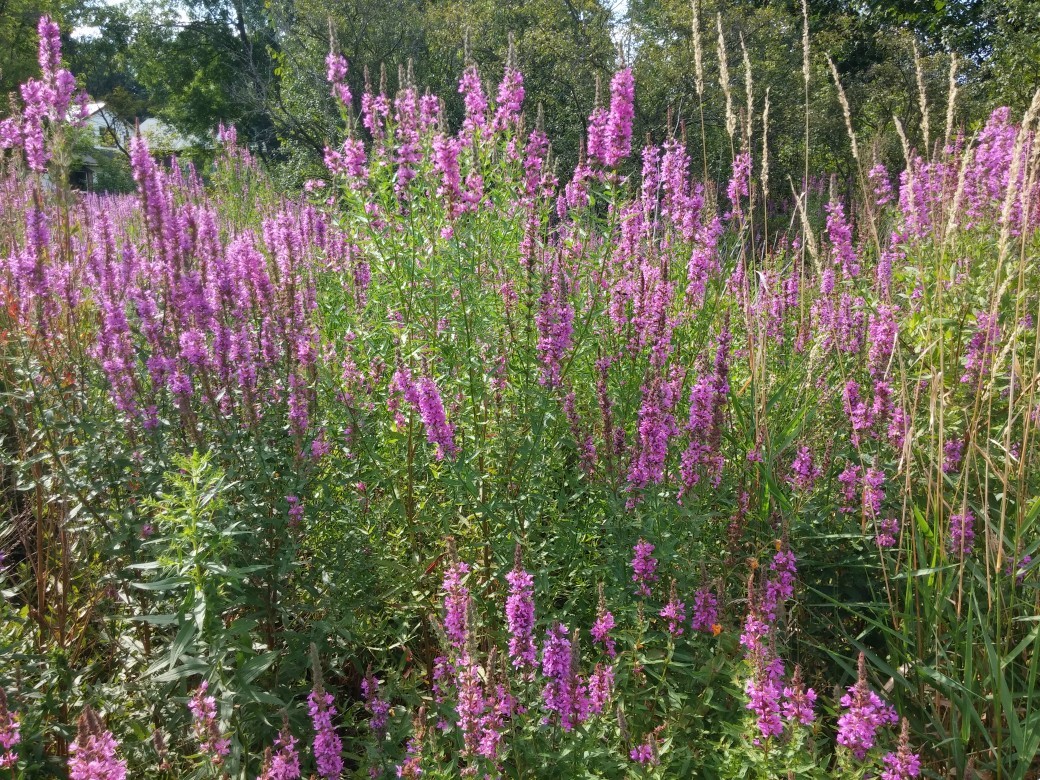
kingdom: Plantae
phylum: Tracheophyta
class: Magnoliopsida
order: Myrtales
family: Lythraceae
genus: Lythrum
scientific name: Lythrum salicaria
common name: Purple loosestrife
